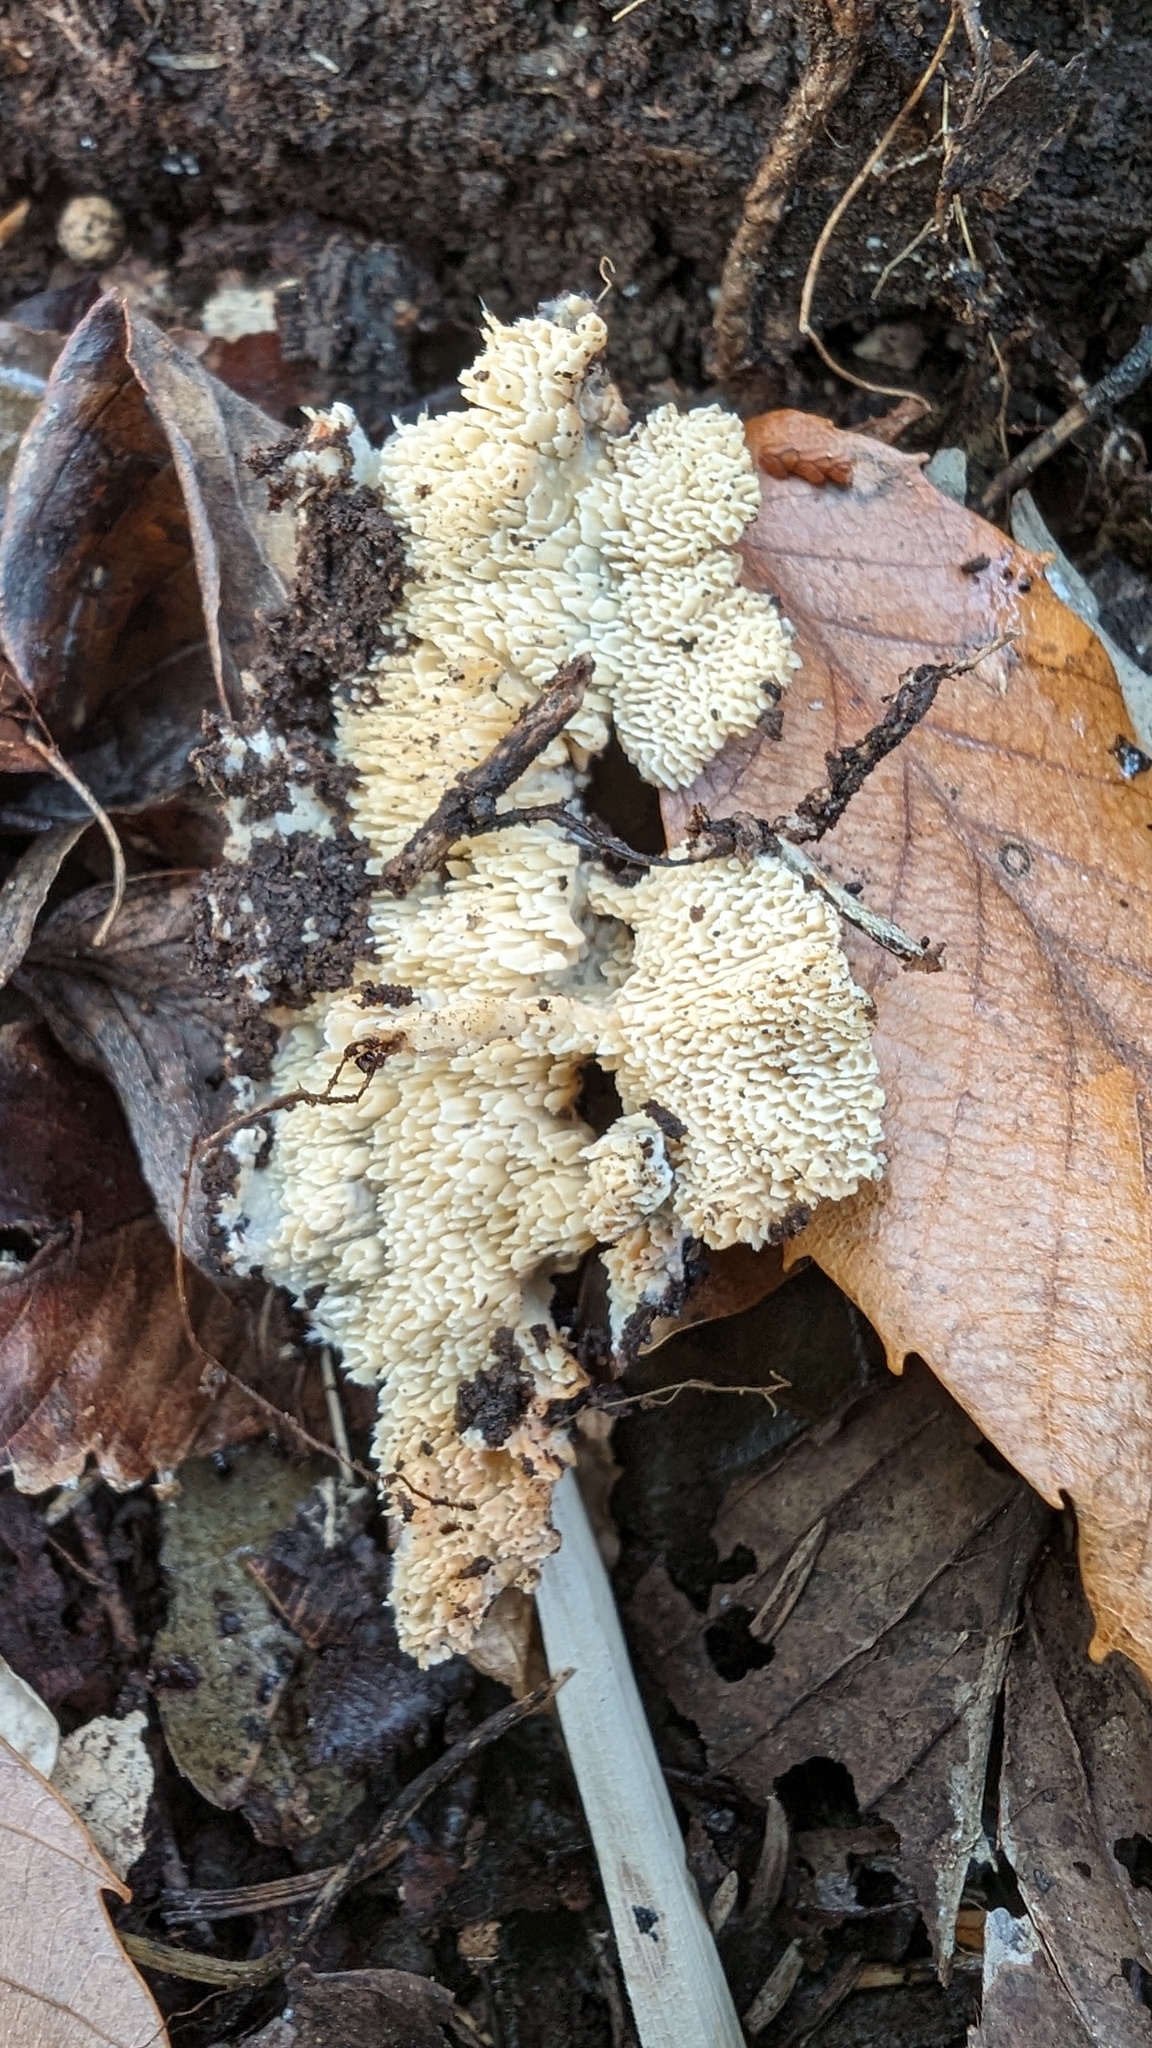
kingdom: Fungi
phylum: Basidiomycota
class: Agaricomycetes
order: Polyporales
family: Irpicaceae
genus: Irpex
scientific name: Irpex consors
